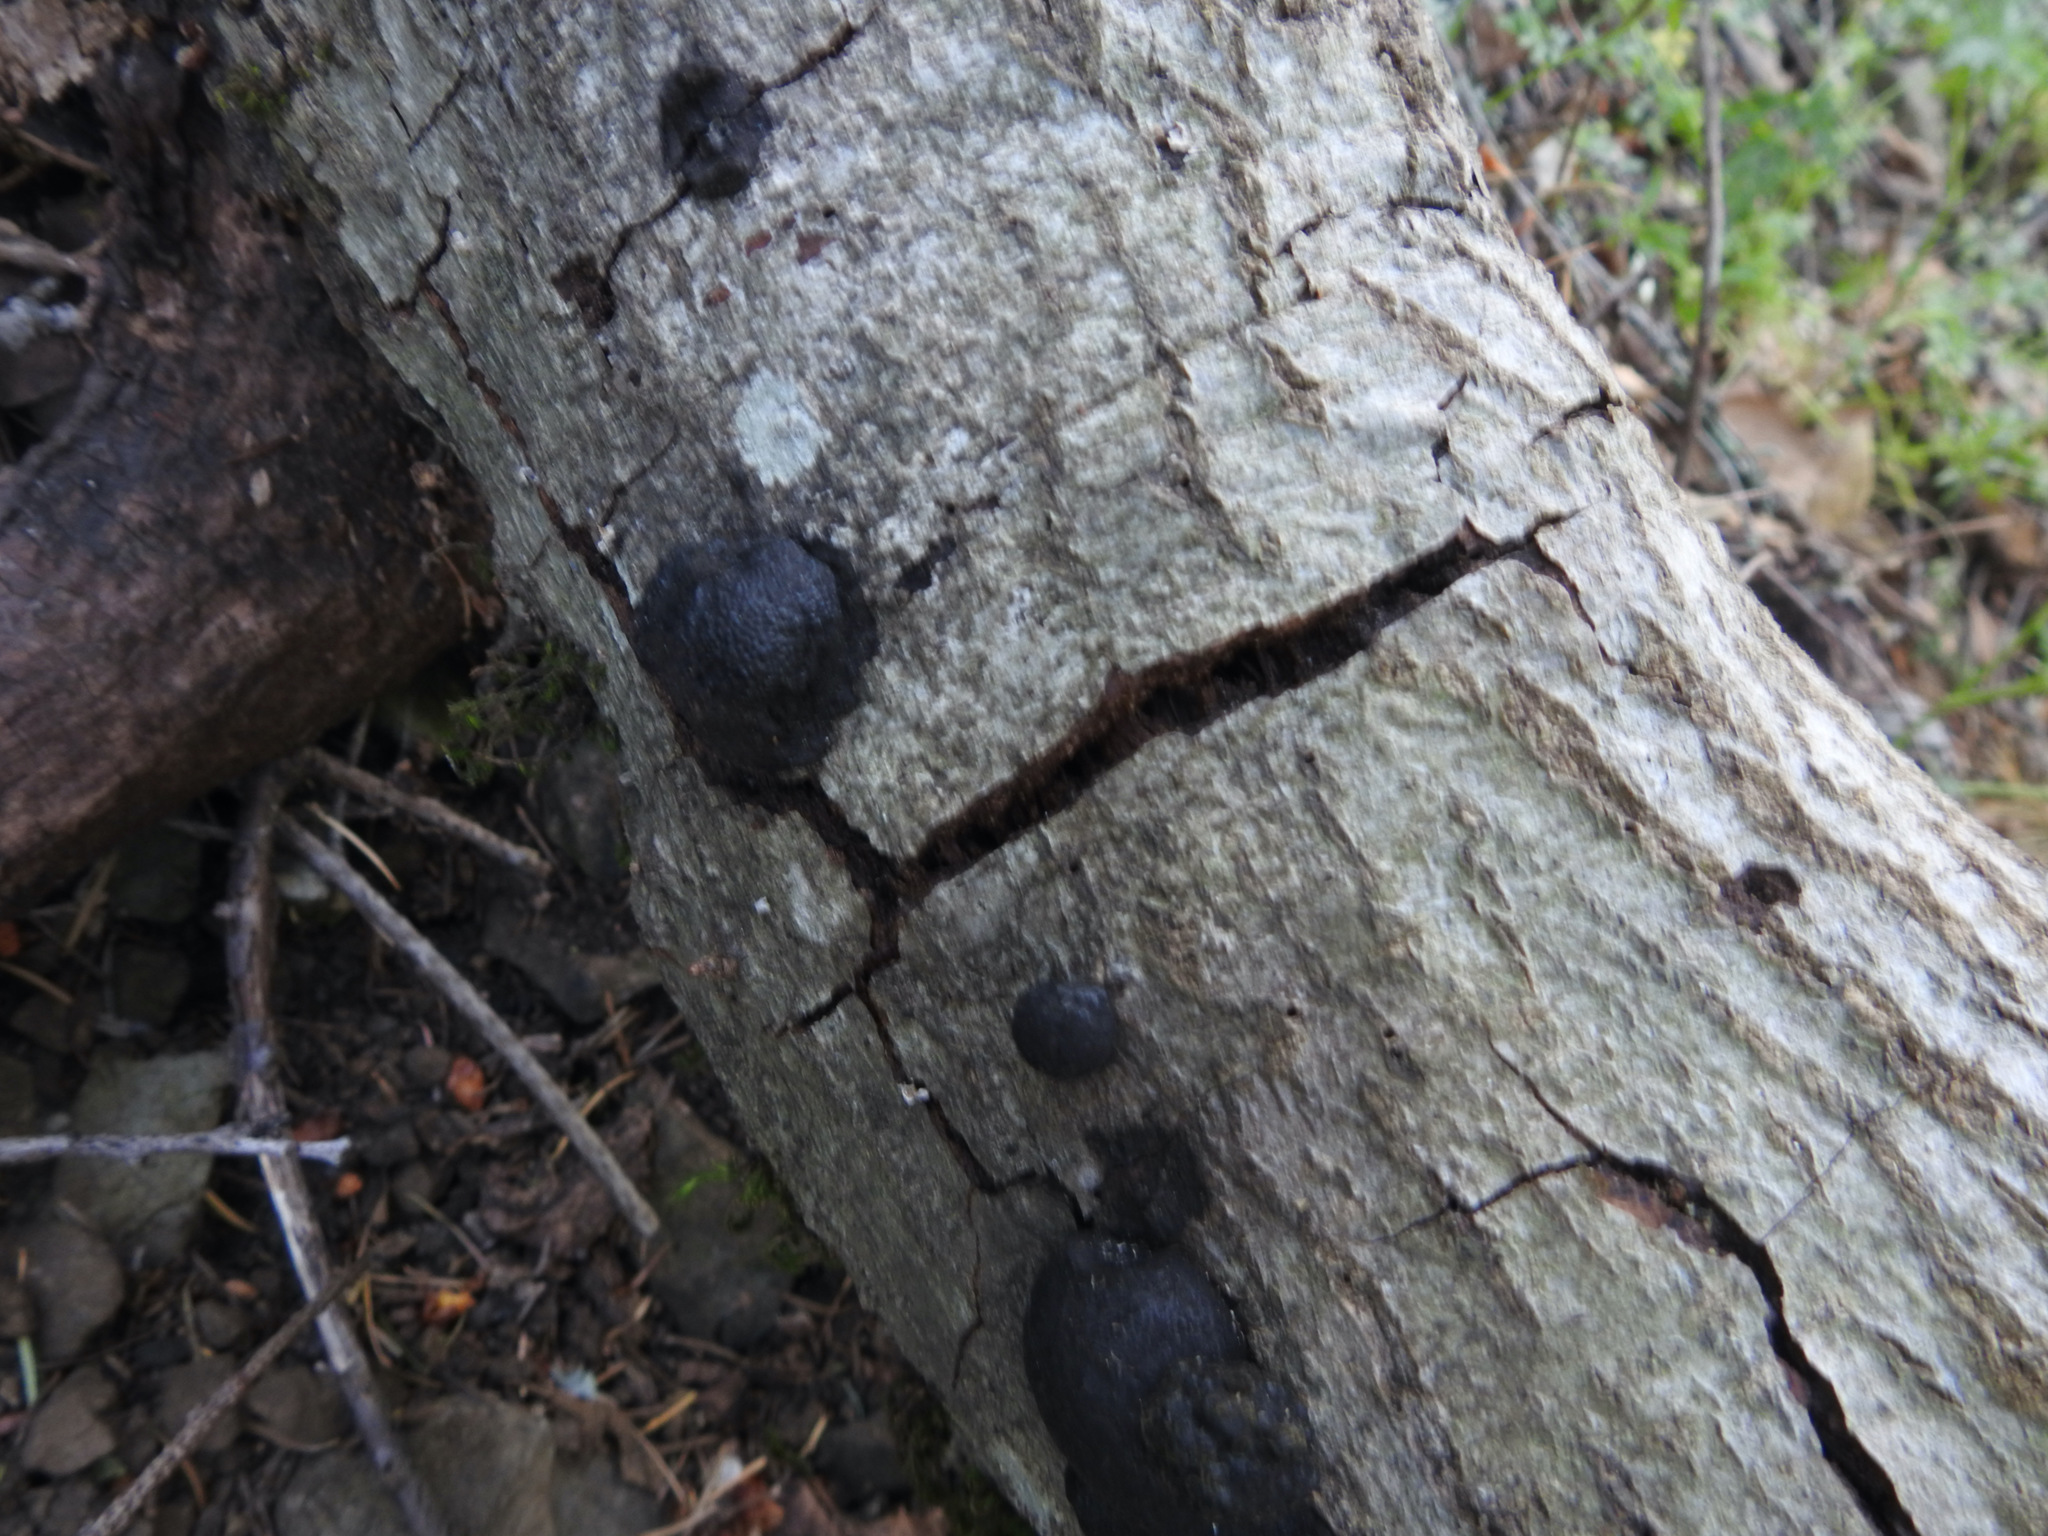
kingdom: Fungi
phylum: Ascomycota
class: Sordariomycetes
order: Xylariales
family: Hypoxylaceae
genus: Annulohypoxylon
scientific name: Annulohypoxylon thouarsianum
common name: Cramp balls
